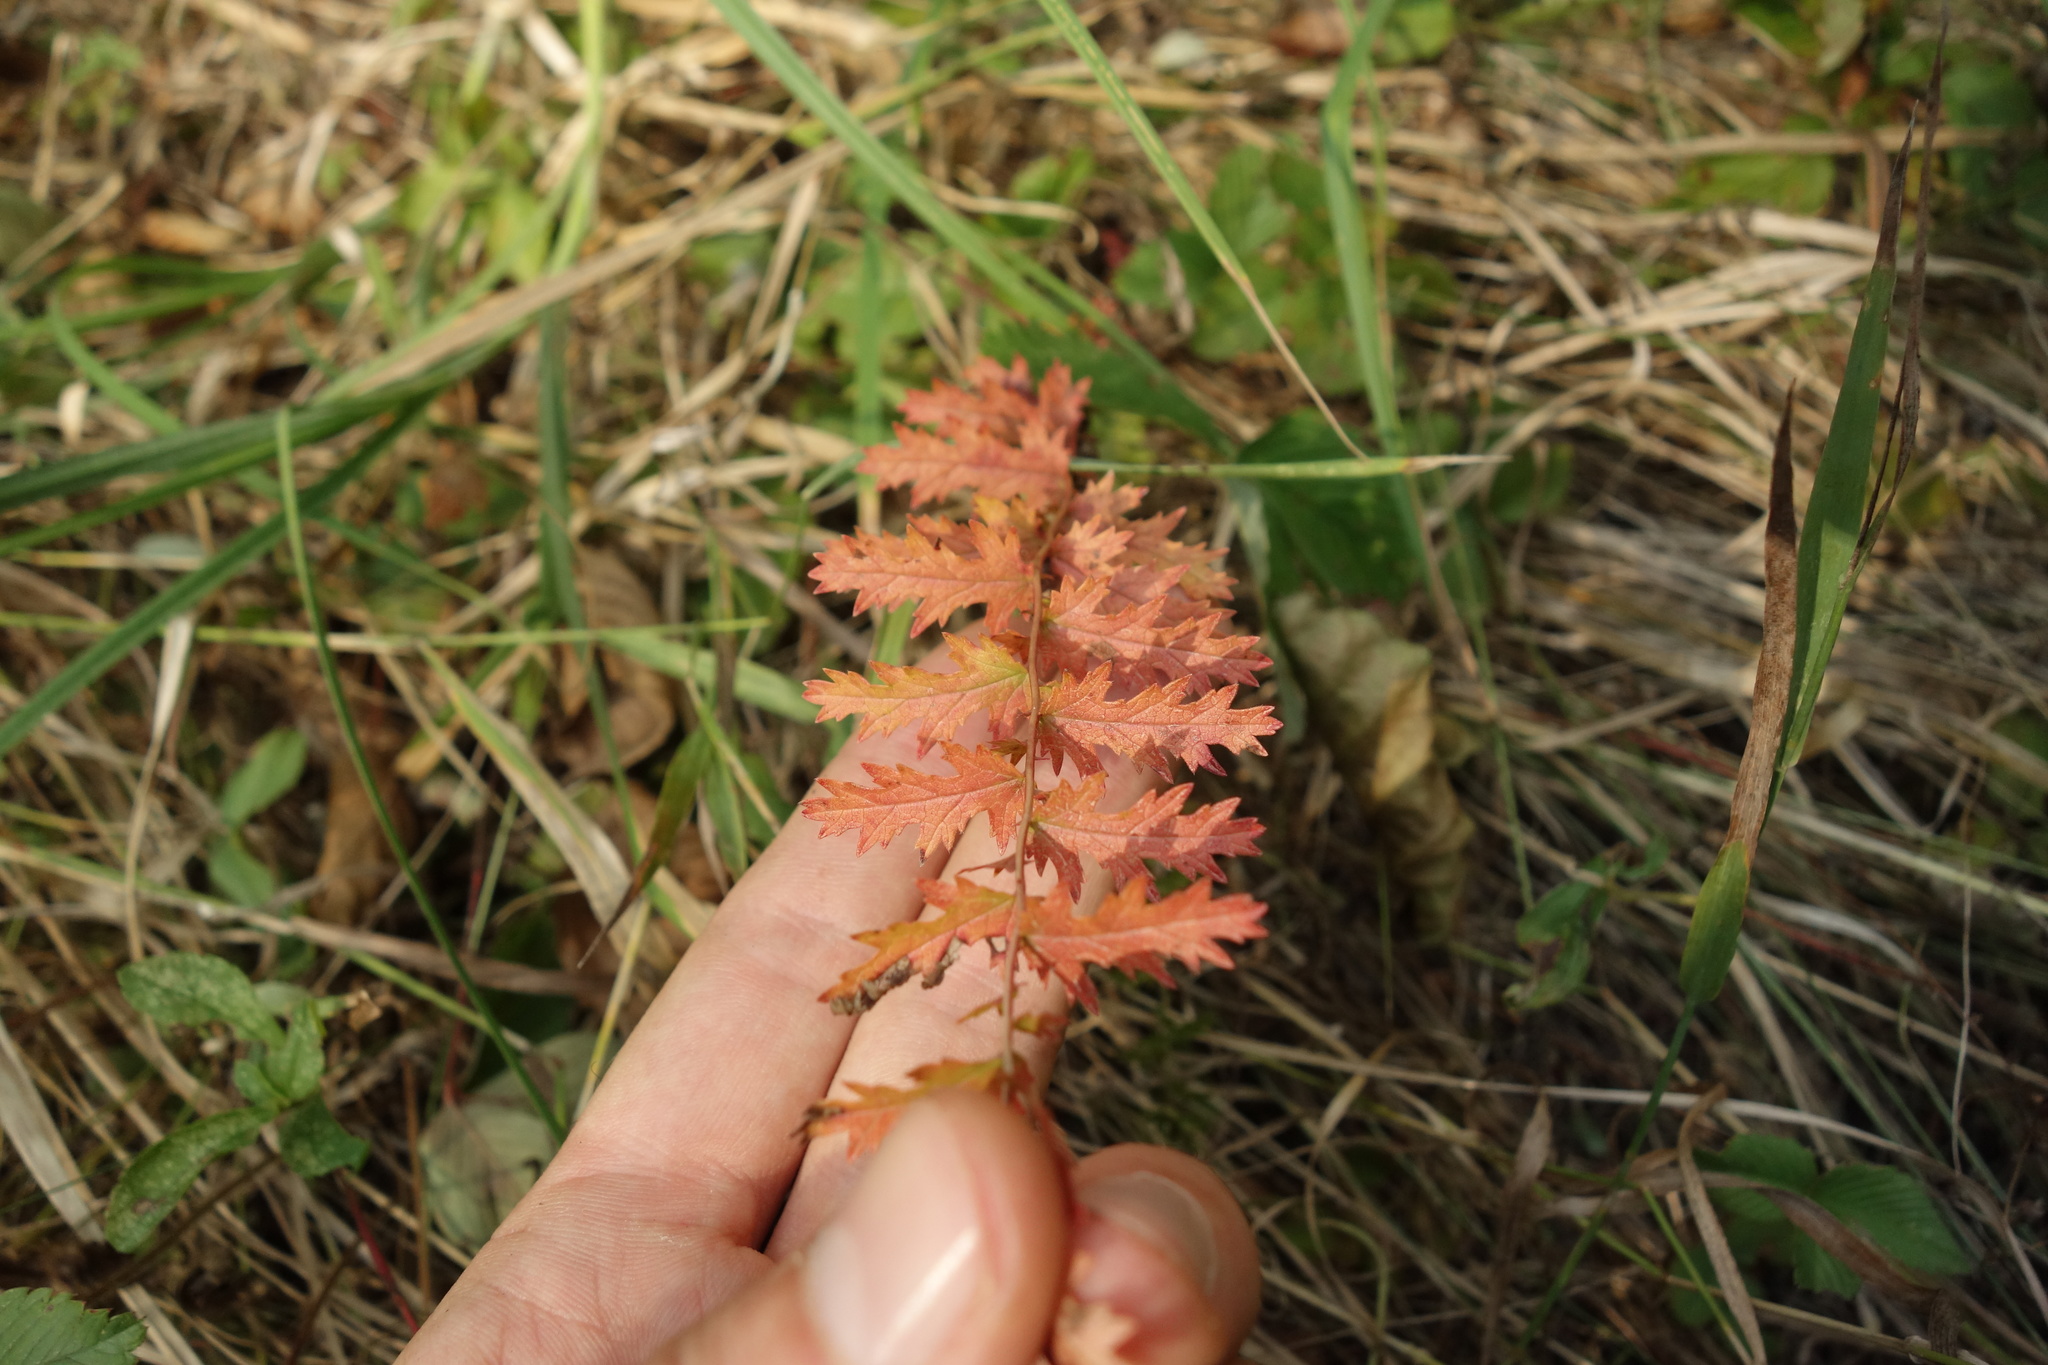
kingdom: Plantae
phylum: Tracheophyta
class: Magnoliopsida
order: Rosales
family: Rosaceae
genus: Filipendula
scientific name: Filipendula vulgaris
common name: Dropwort
